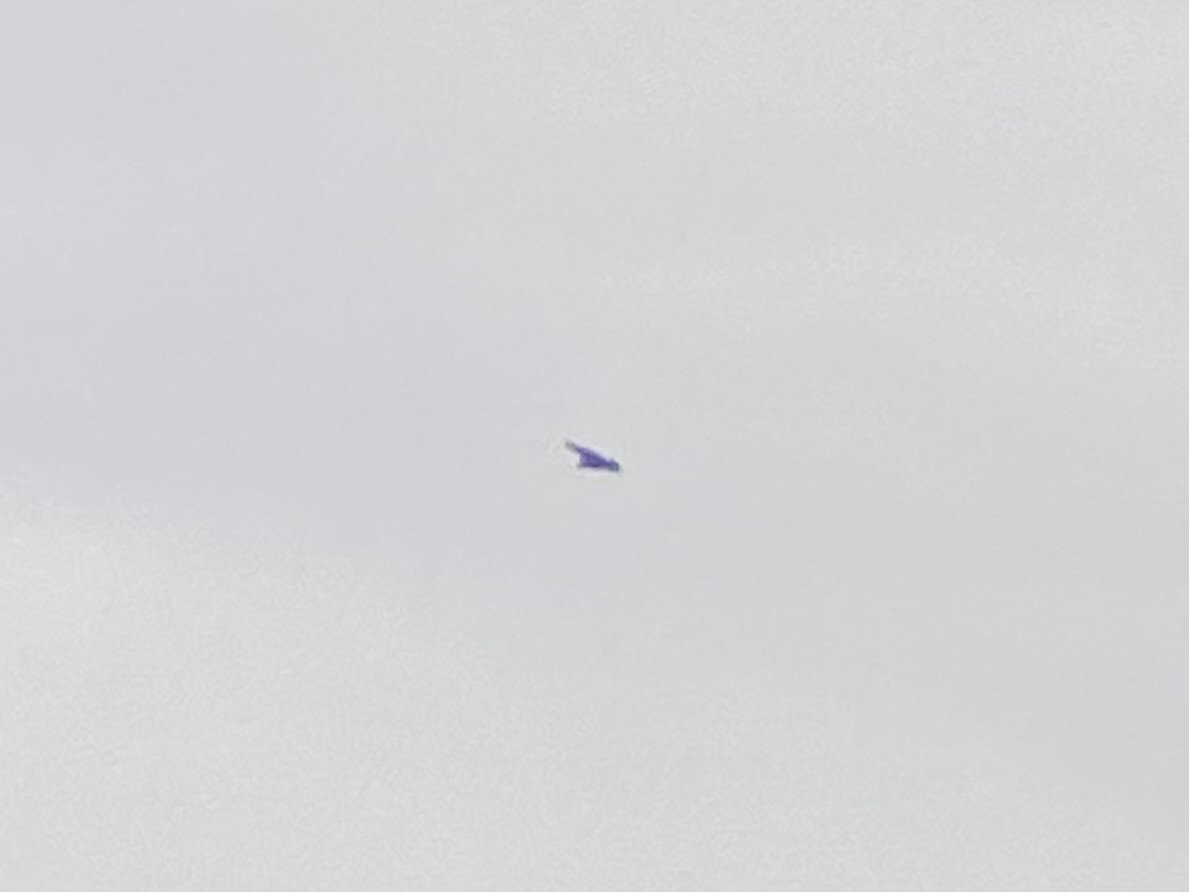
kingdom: Animalia
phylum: Chordata
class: Aves
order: Accipitriformes
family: Cathartidae
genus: Coragyps
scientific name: Coragyps atratus
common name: Black vulture
